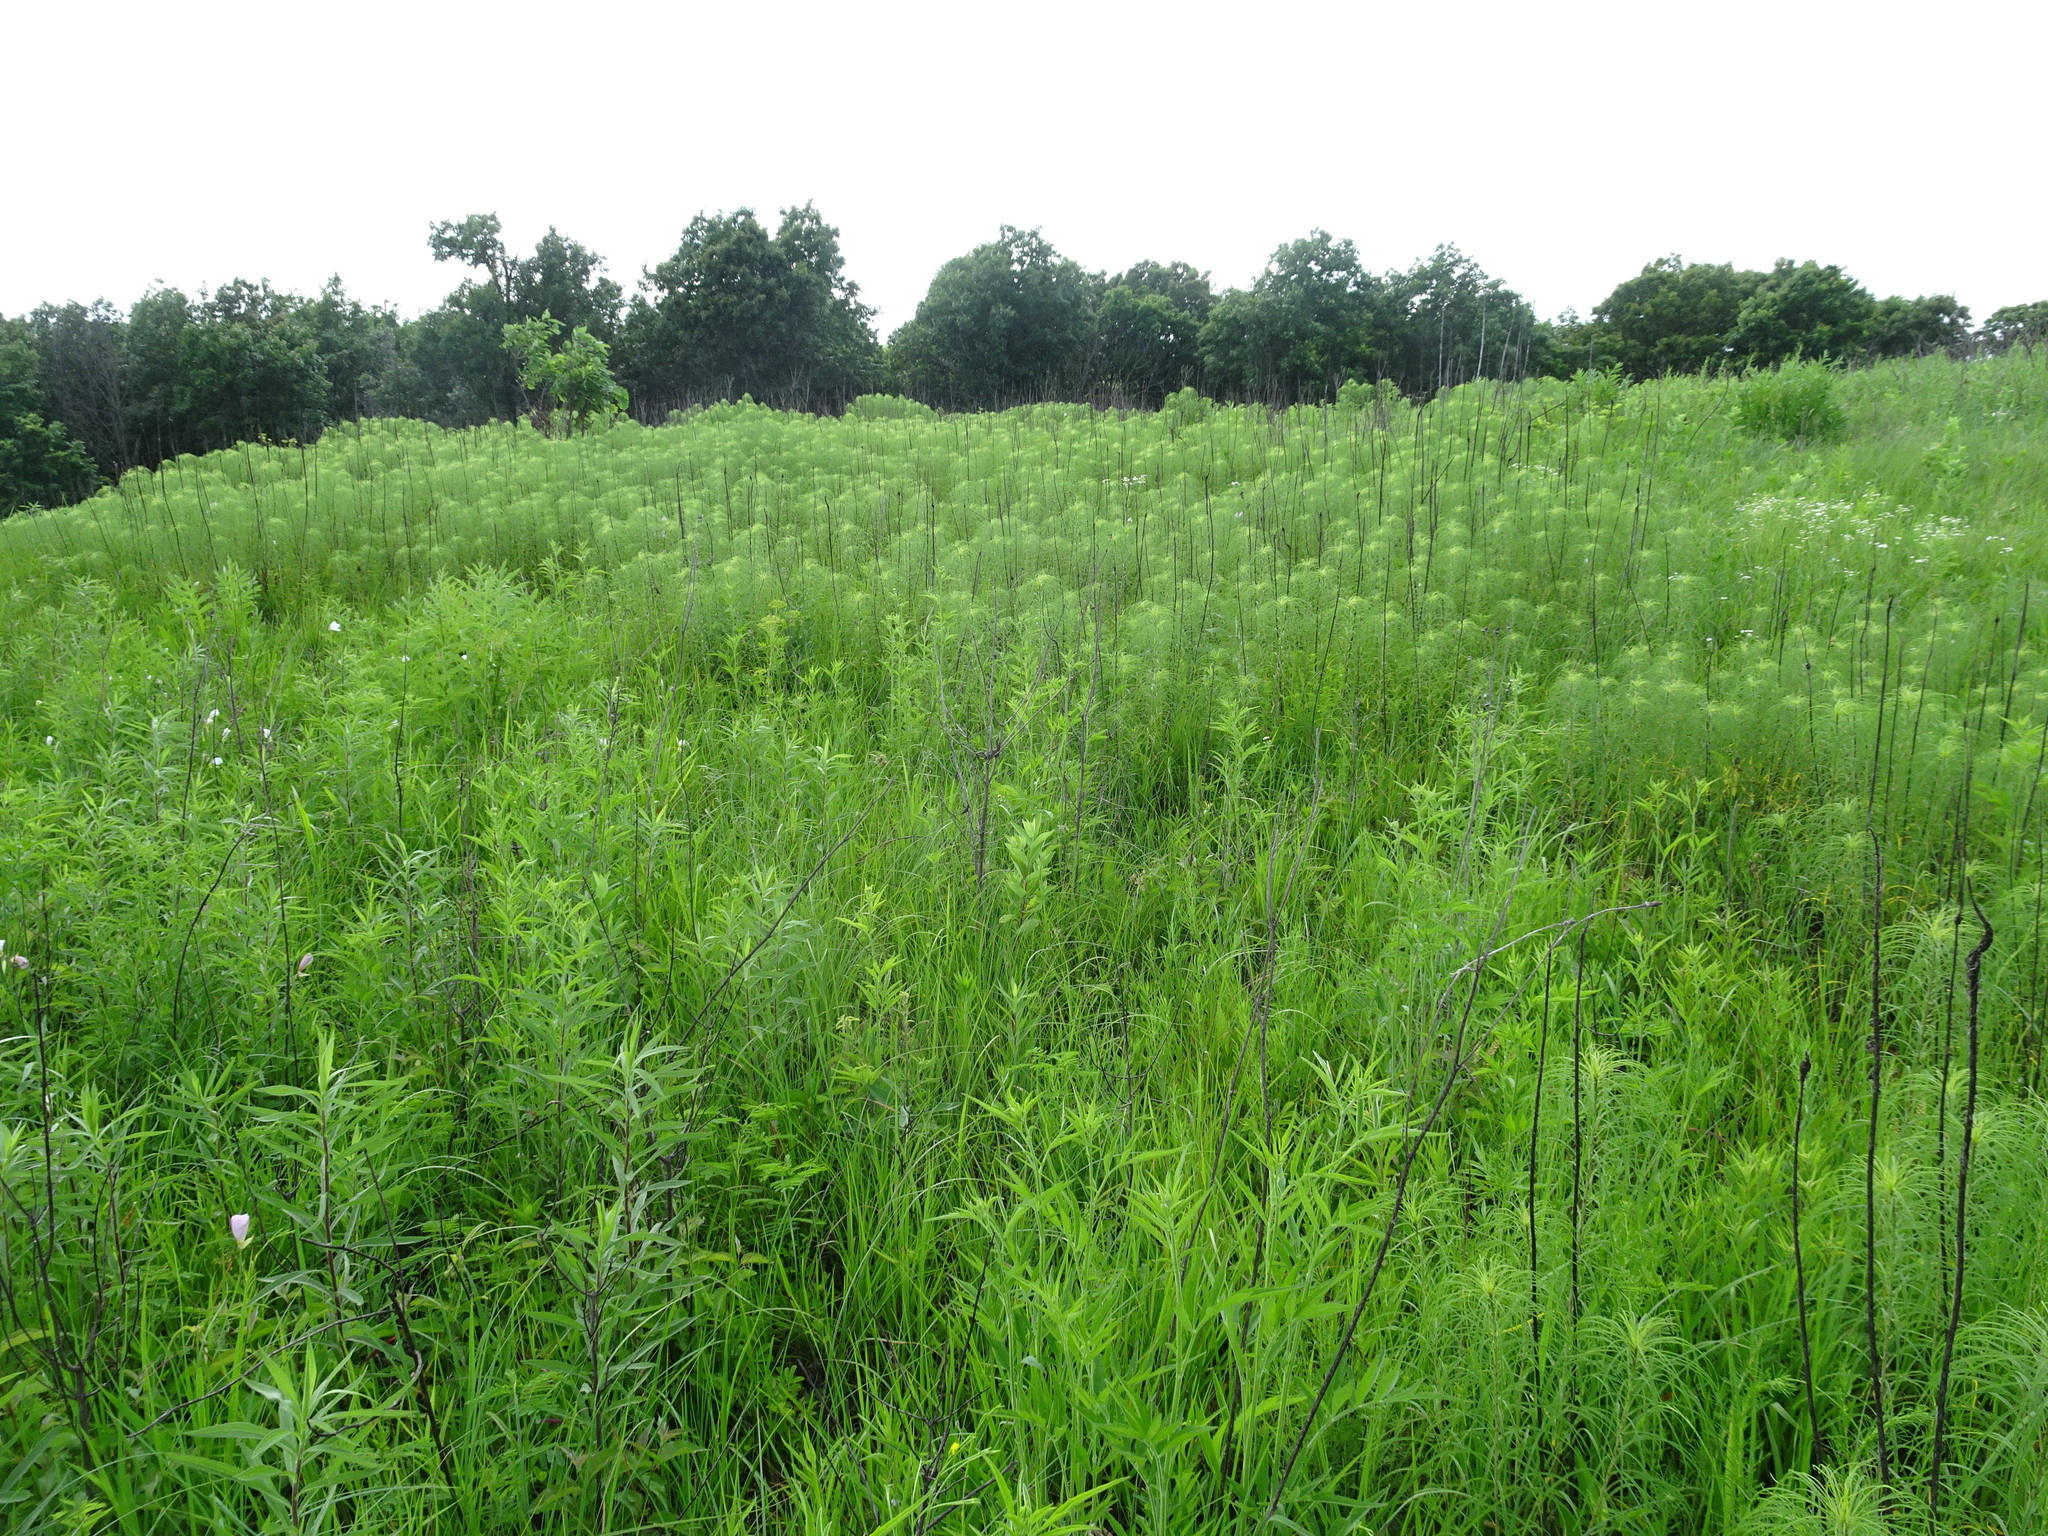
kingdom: Plantae
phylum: Tracheophyta
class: Magnoliopsida
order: Asterales
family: Asteraceae
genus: Helianthus
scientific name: Helianthus salicifolius
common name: Willowleaf sunflower
